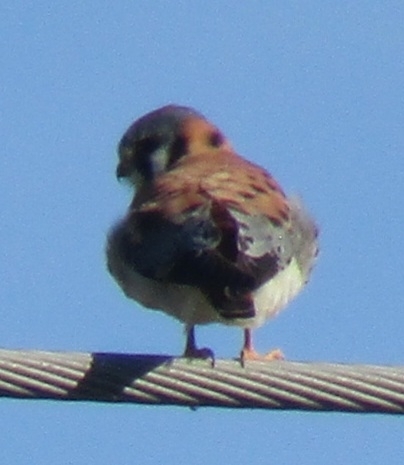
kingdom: Animalia
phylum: Chordata
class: Aves
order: Falconiformes
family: Falconidae
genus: Falco
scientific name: Falco sparverius
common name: American kestrel
